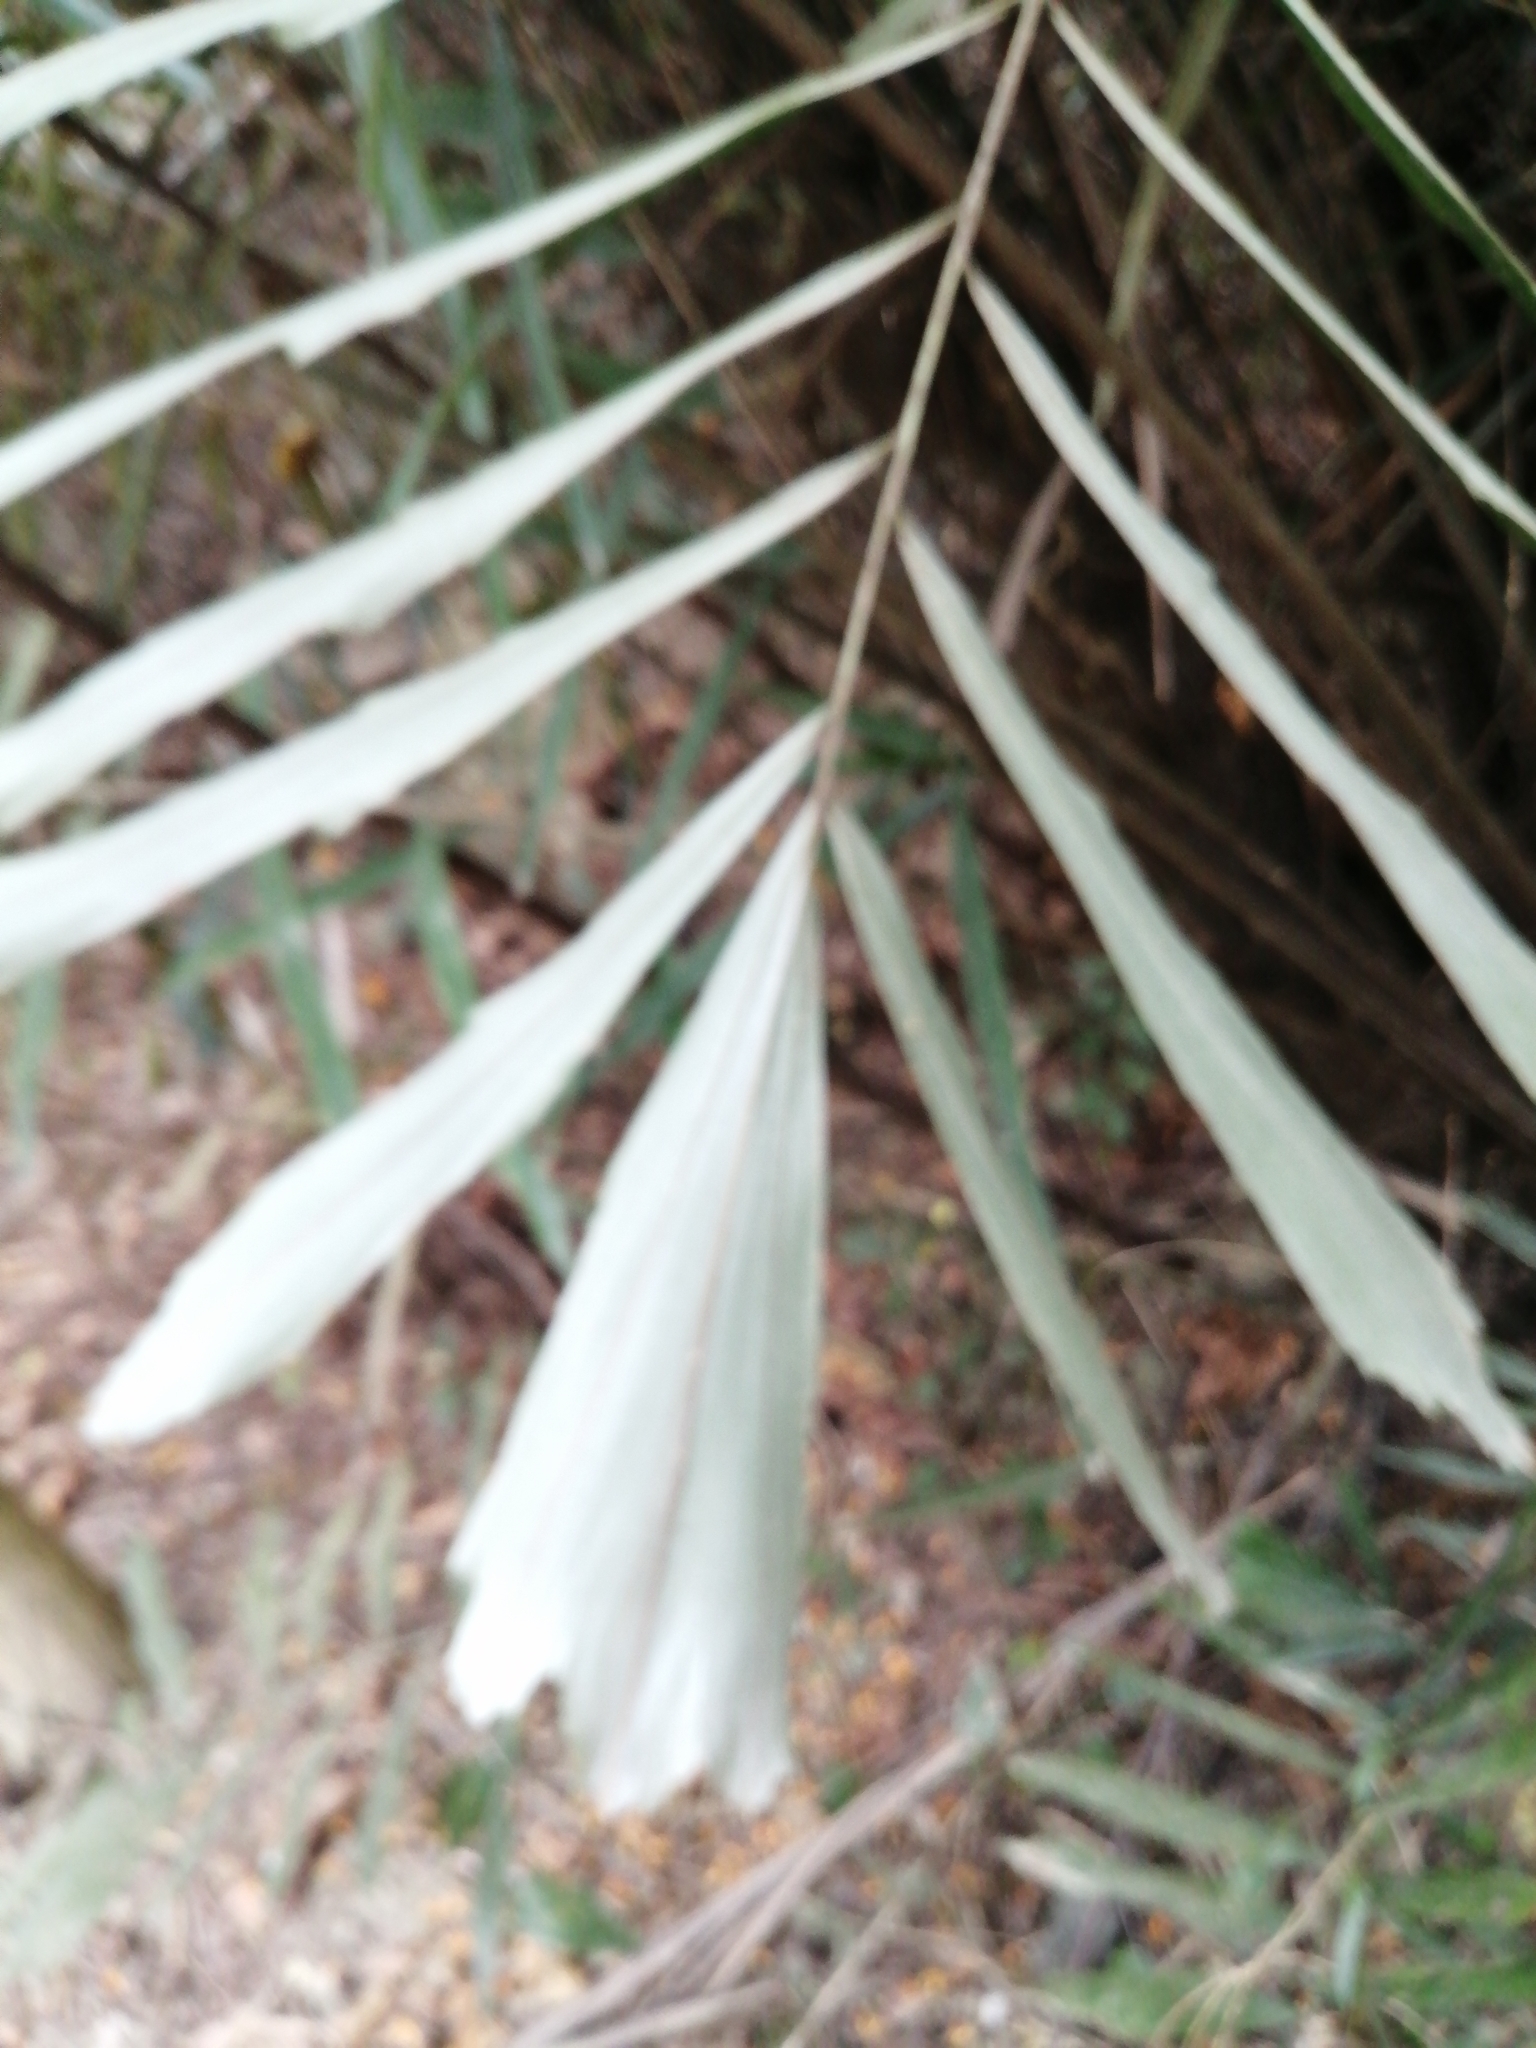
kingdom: Plantae
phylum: Tracheophyta
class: Liliopsida
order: Arecales
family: Arecaceae
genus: Arenga
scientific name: Arenga engleri
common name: Formosan sugar palm
